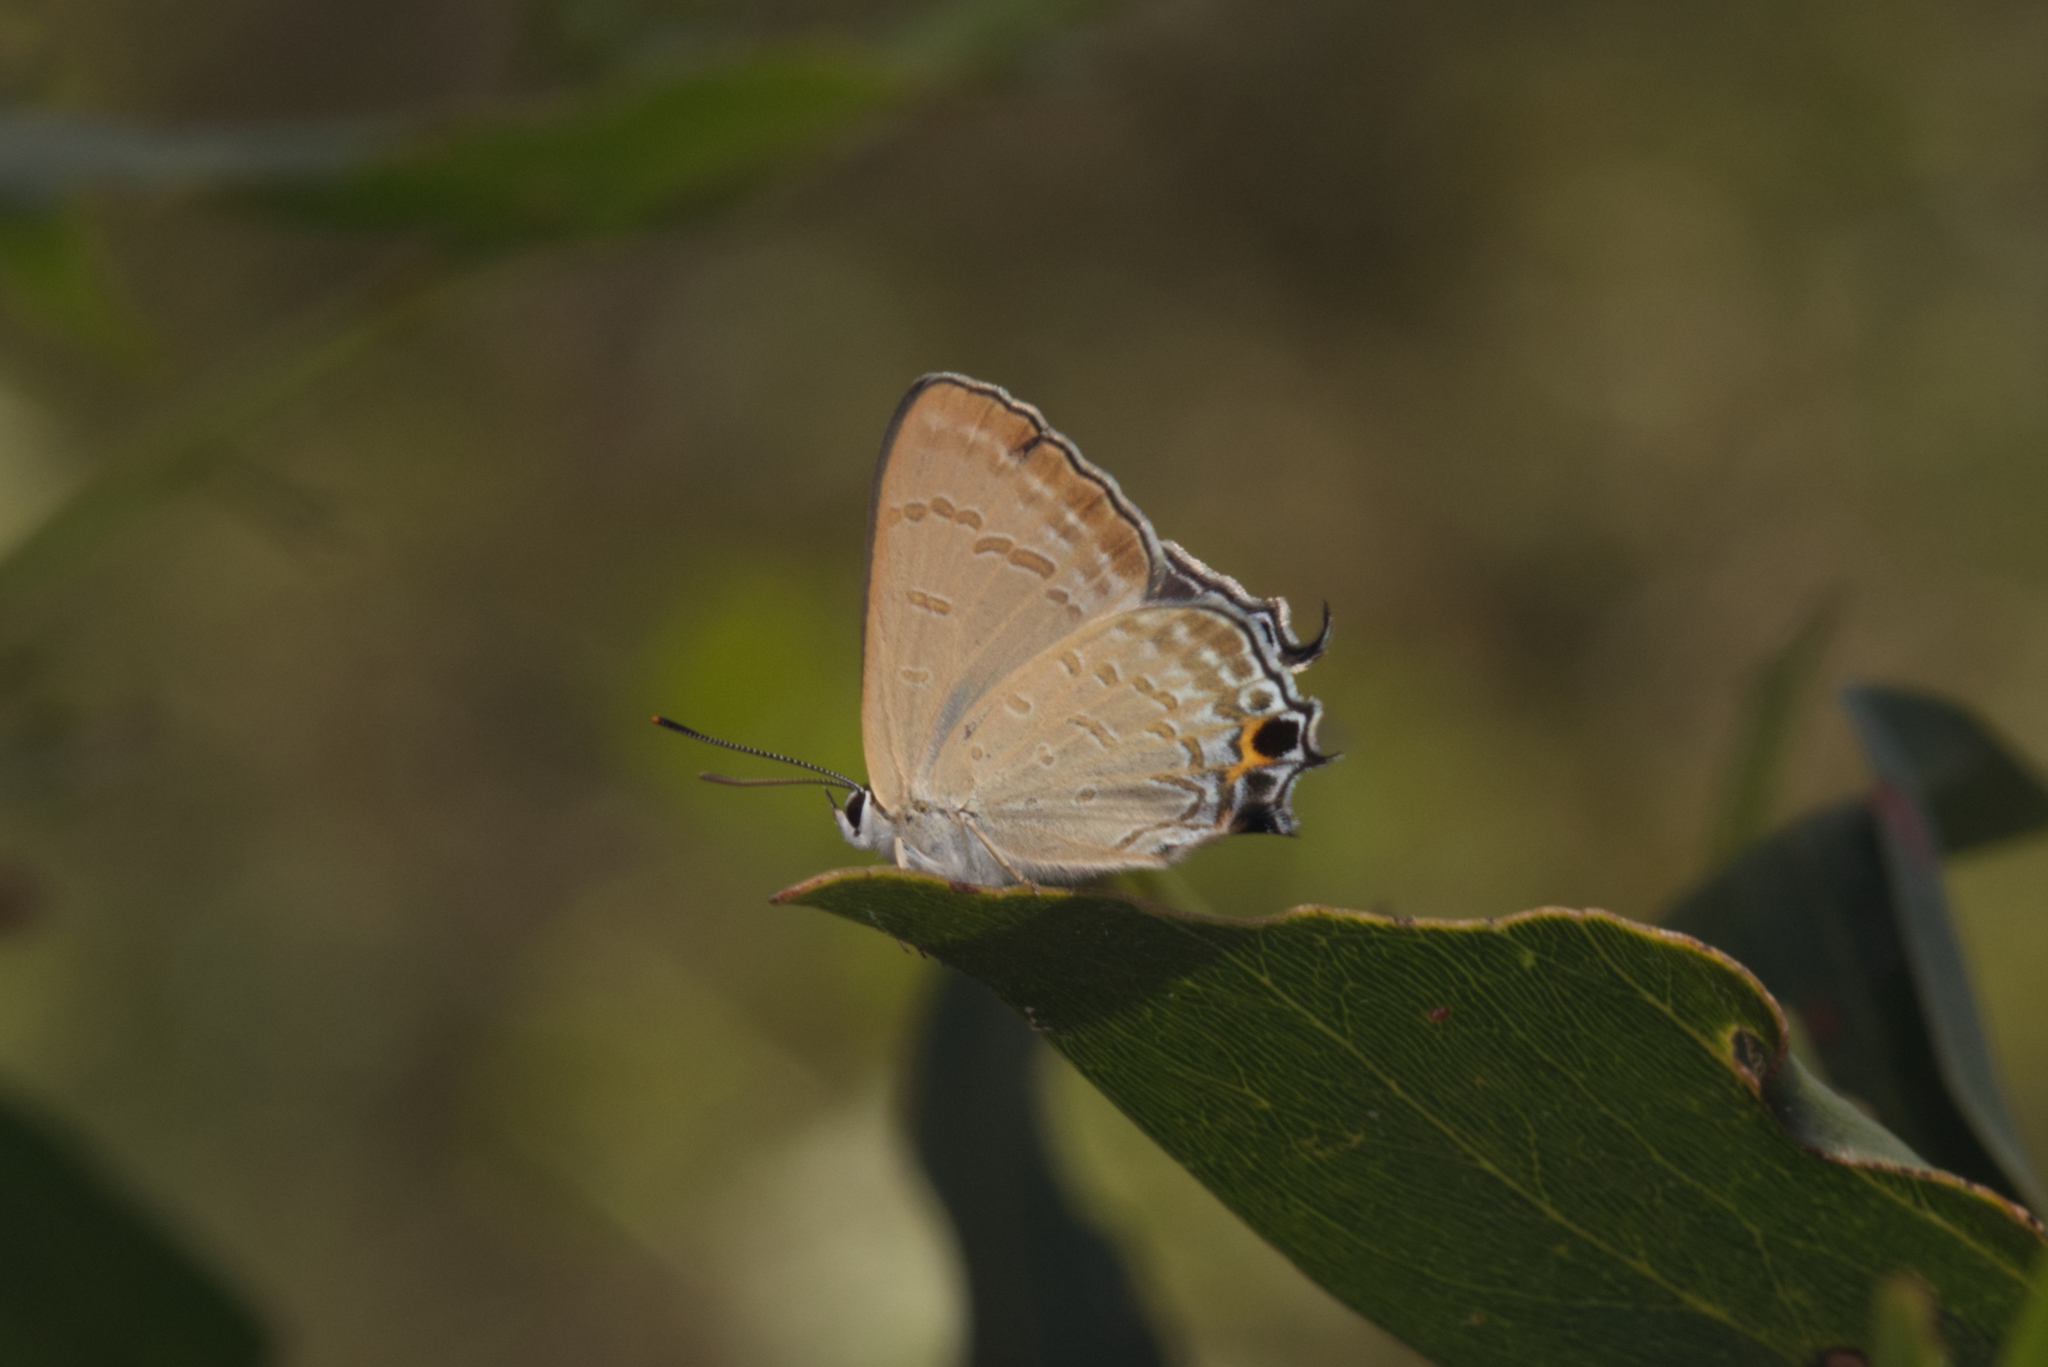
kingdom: Animalia
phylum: Arthropoda
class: Insecta
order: Lepidoptera
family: Lycaenidae
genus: Jalmenus
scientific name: Jalmenus daemeli
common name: Emerald hairstreak
